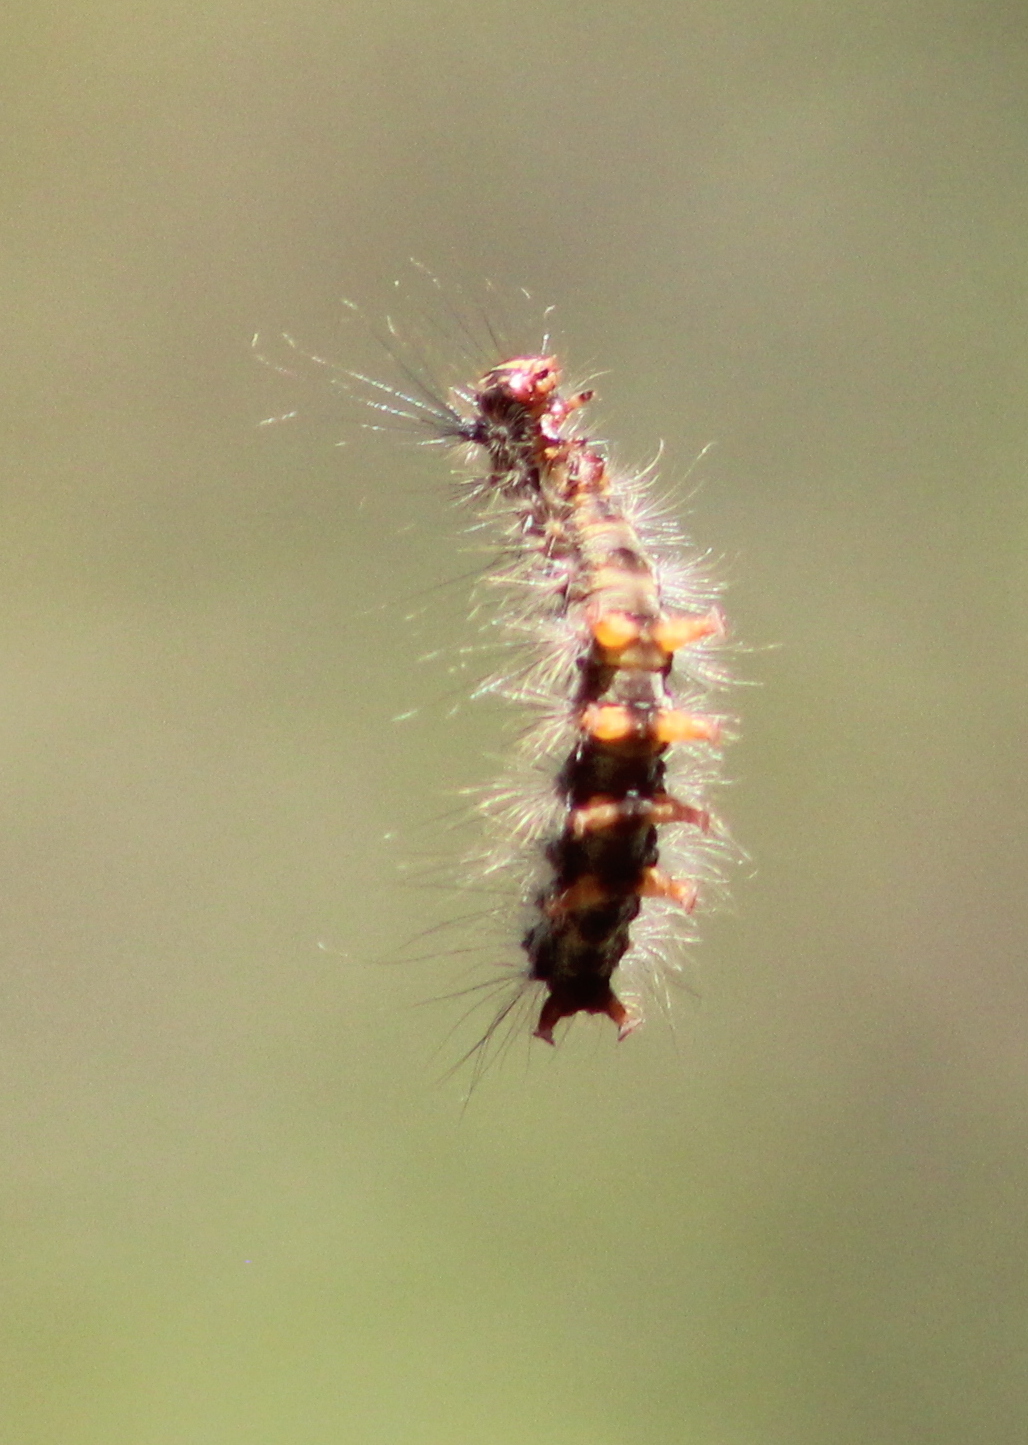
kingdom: Animalia
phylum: Arthropoda
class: Insecta
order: Lepidoptera
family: Erebidae
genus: Lymantria
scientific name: Lymantria dispar
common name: Gypsy moth
